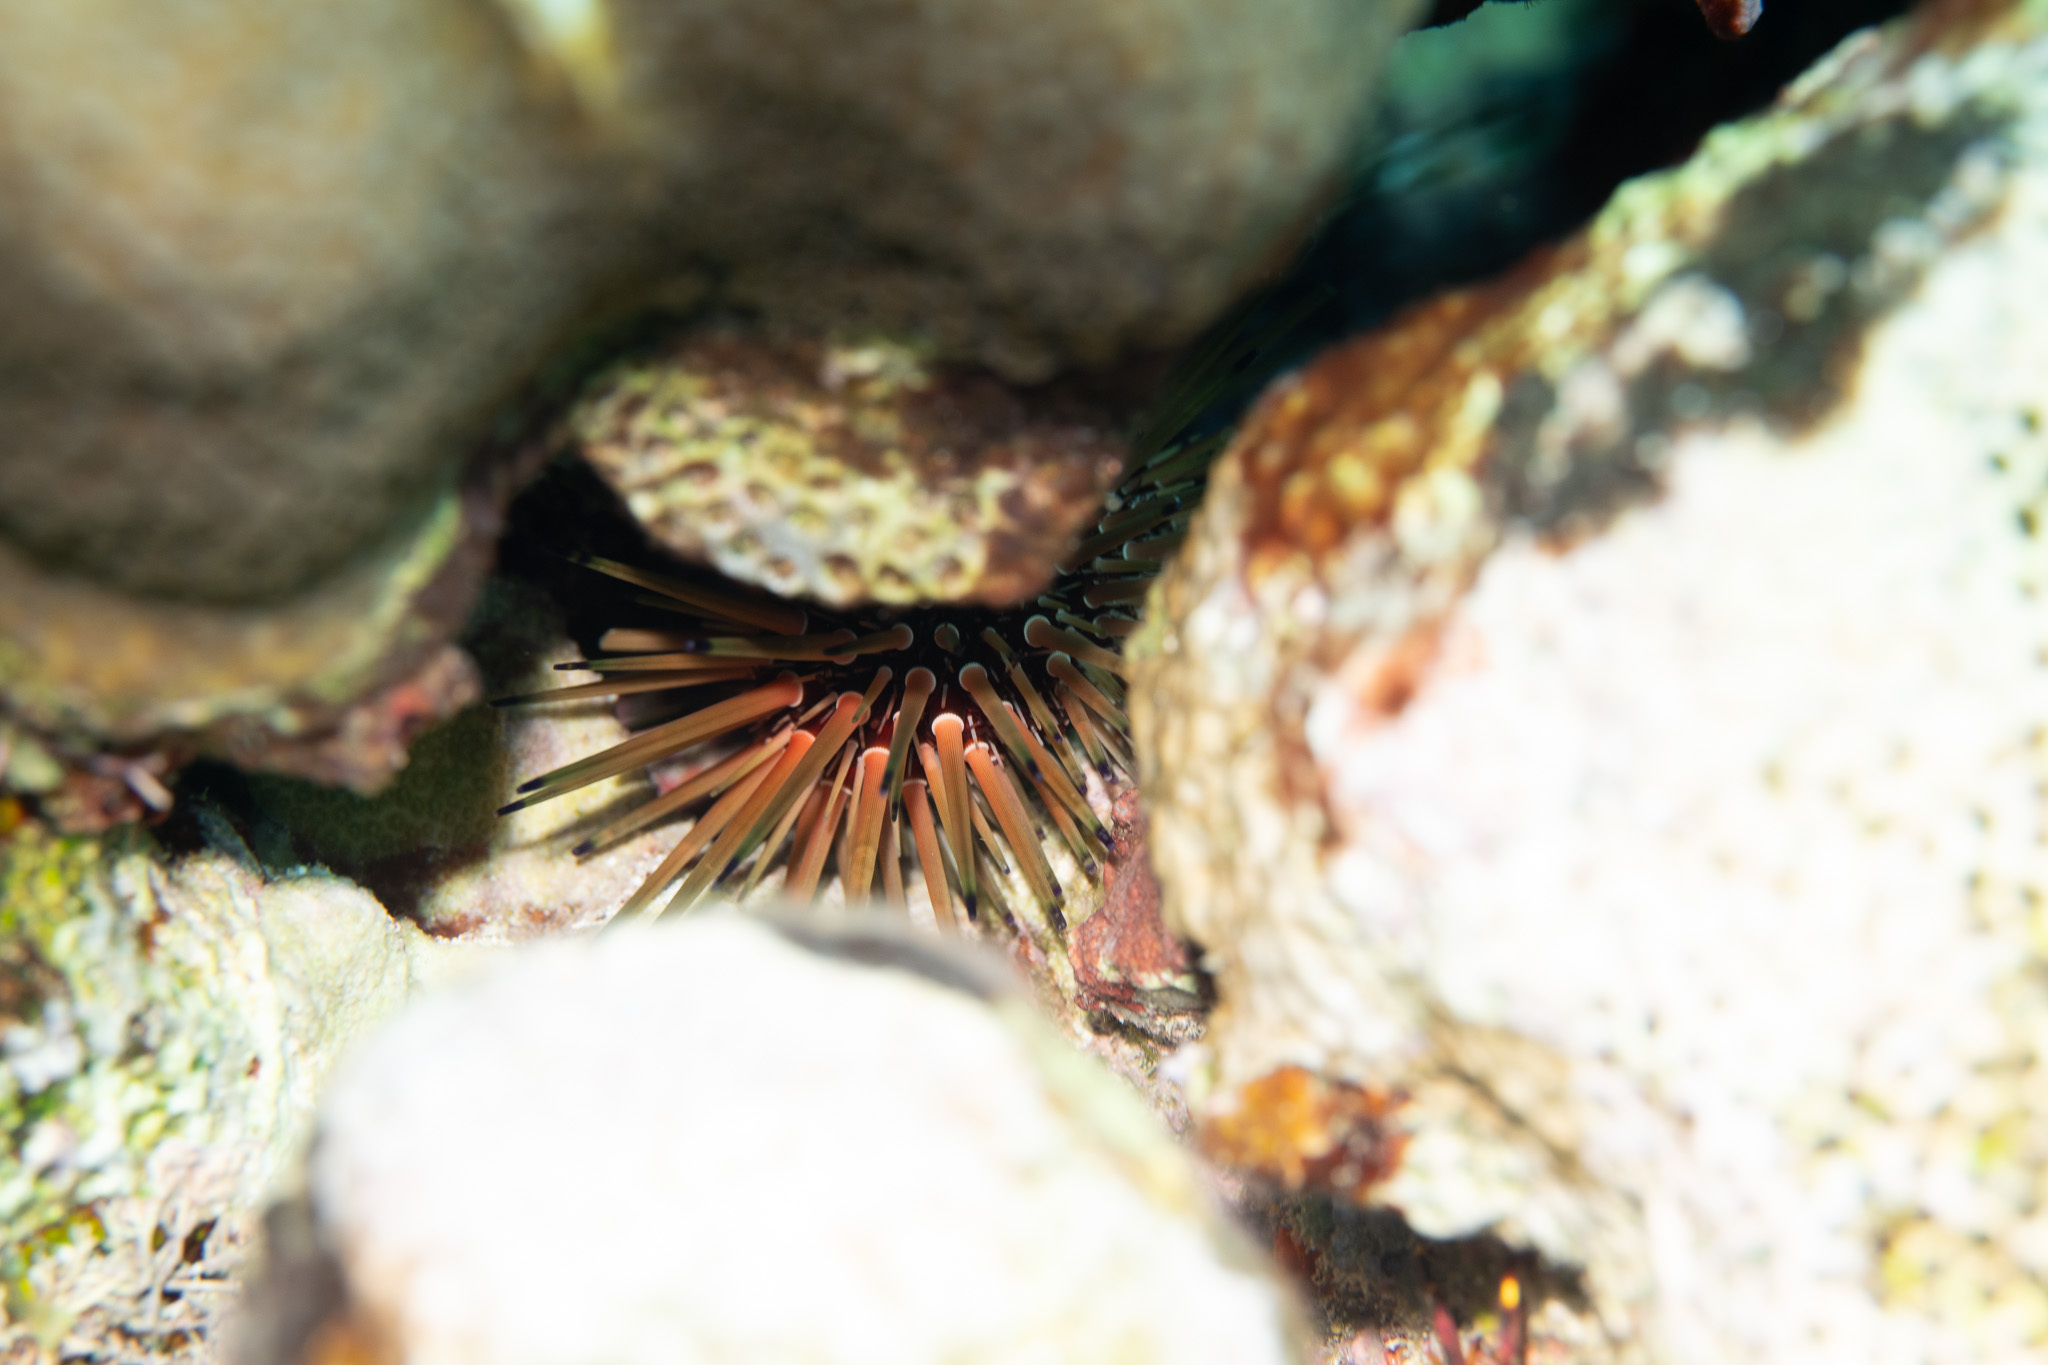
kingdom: Animalia
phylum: Echinodermata
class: Echinoidea
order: Camarodonta
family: Echinometridae
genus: Echinometra
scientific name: Echinometra viridis
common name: Reef urchin
